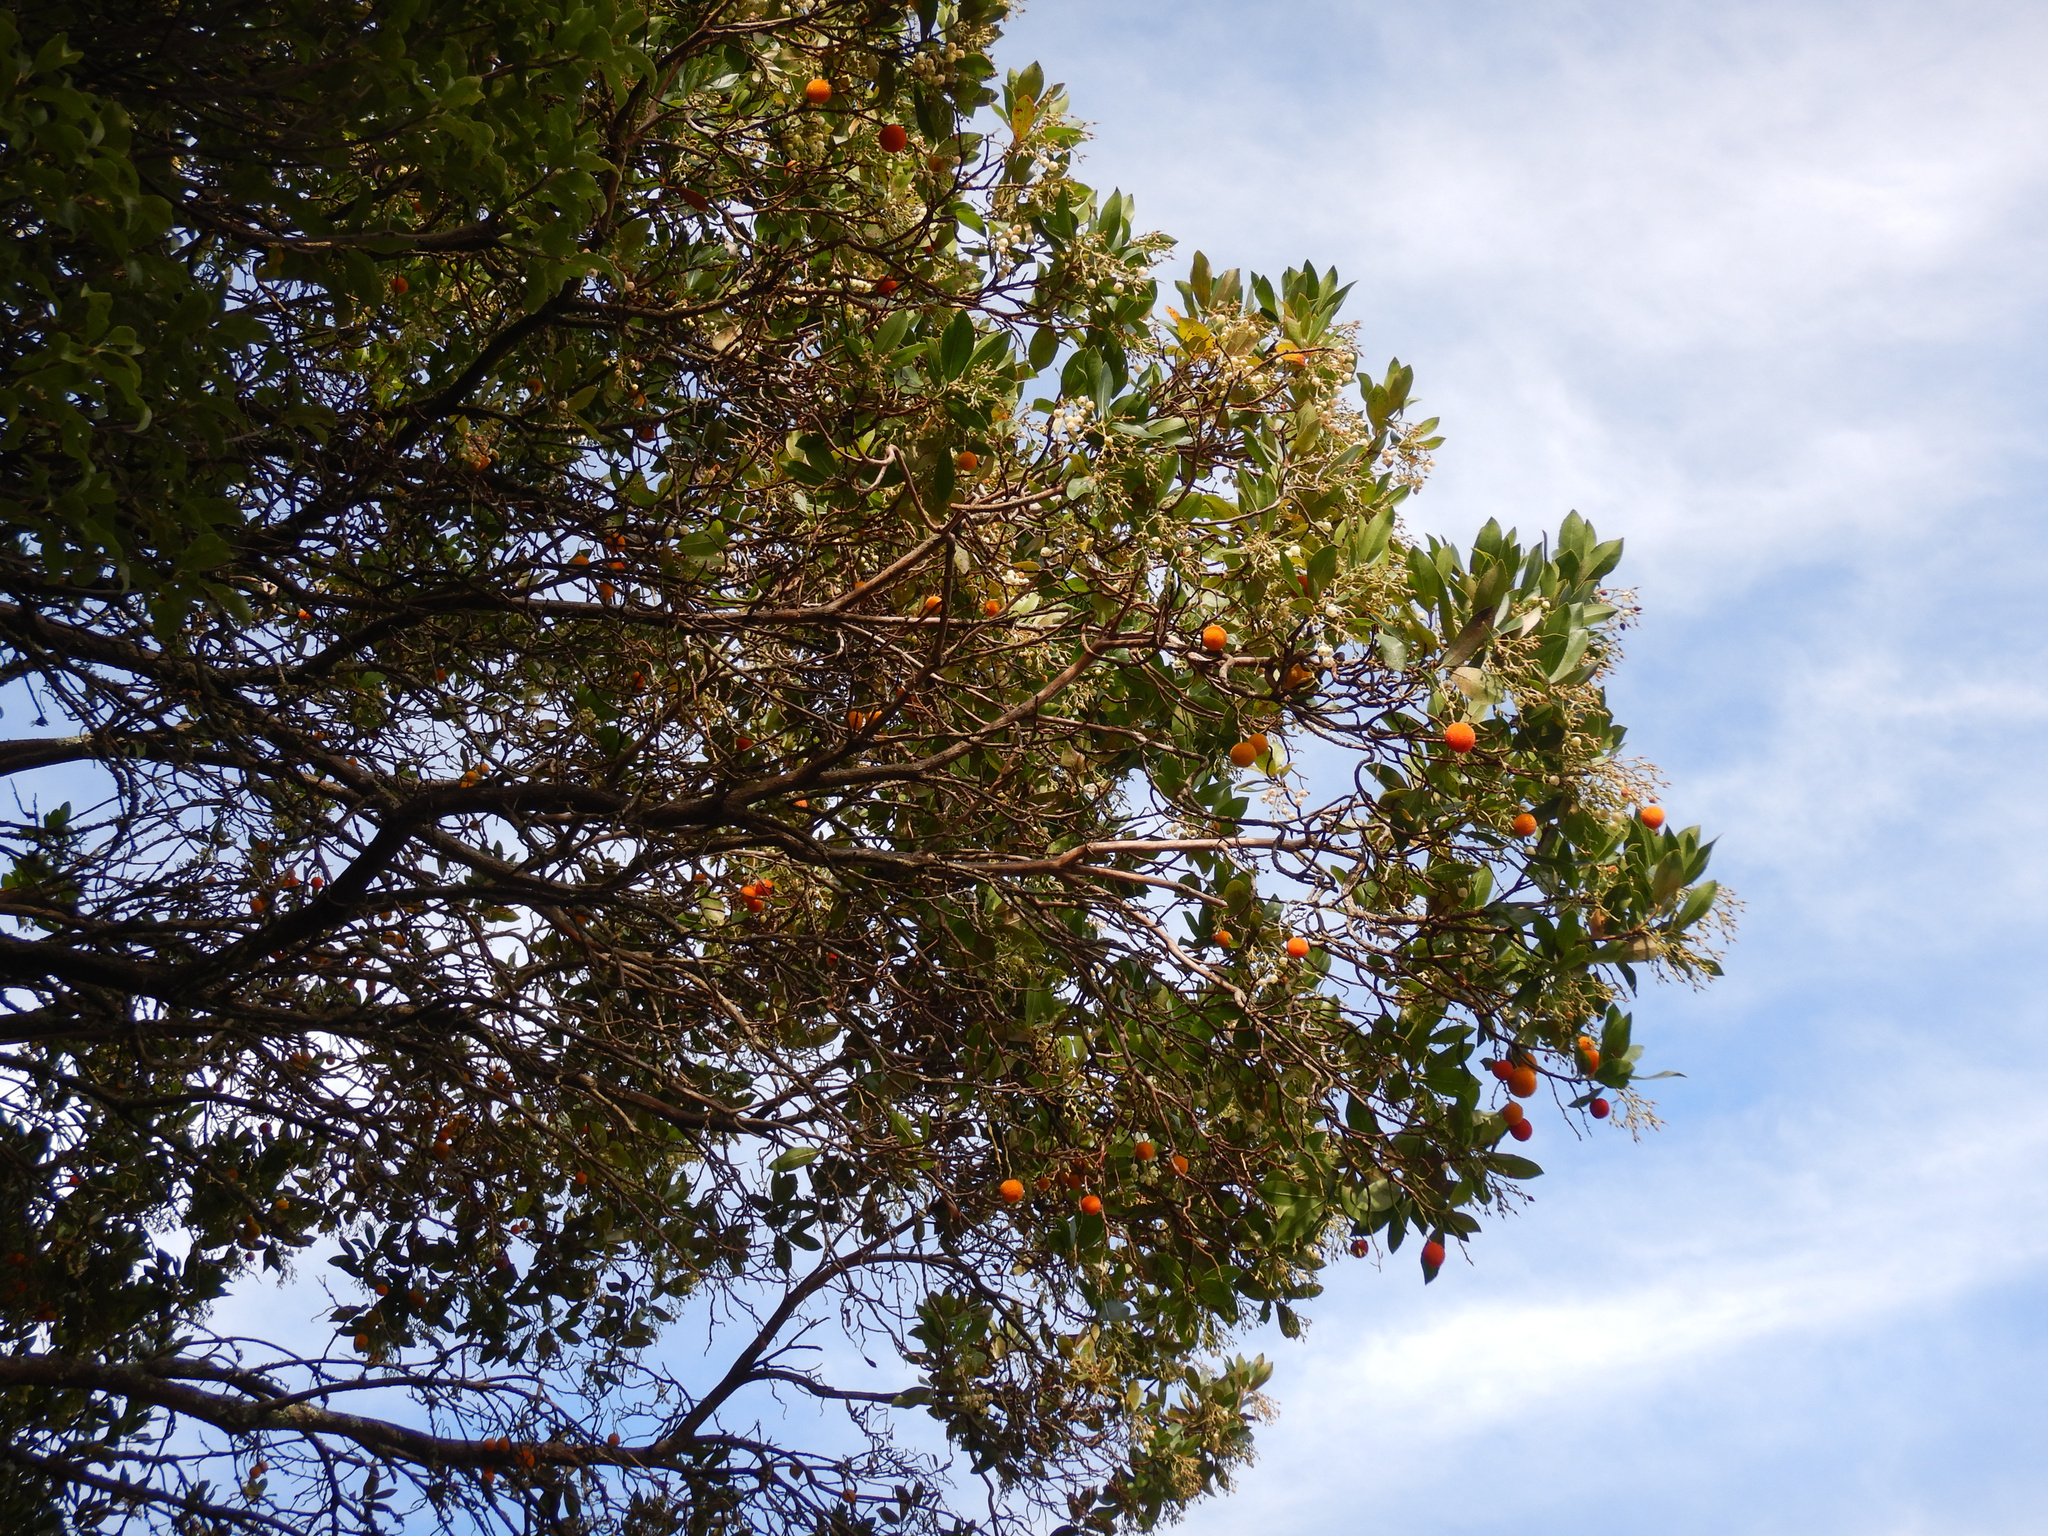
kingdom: Plantae
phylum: Tracheophyta
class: Magnoliopsida
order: Ericales
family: Ericaceae
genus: Arbutus
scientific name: Arbutus unedo
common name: Strawberry-tree
